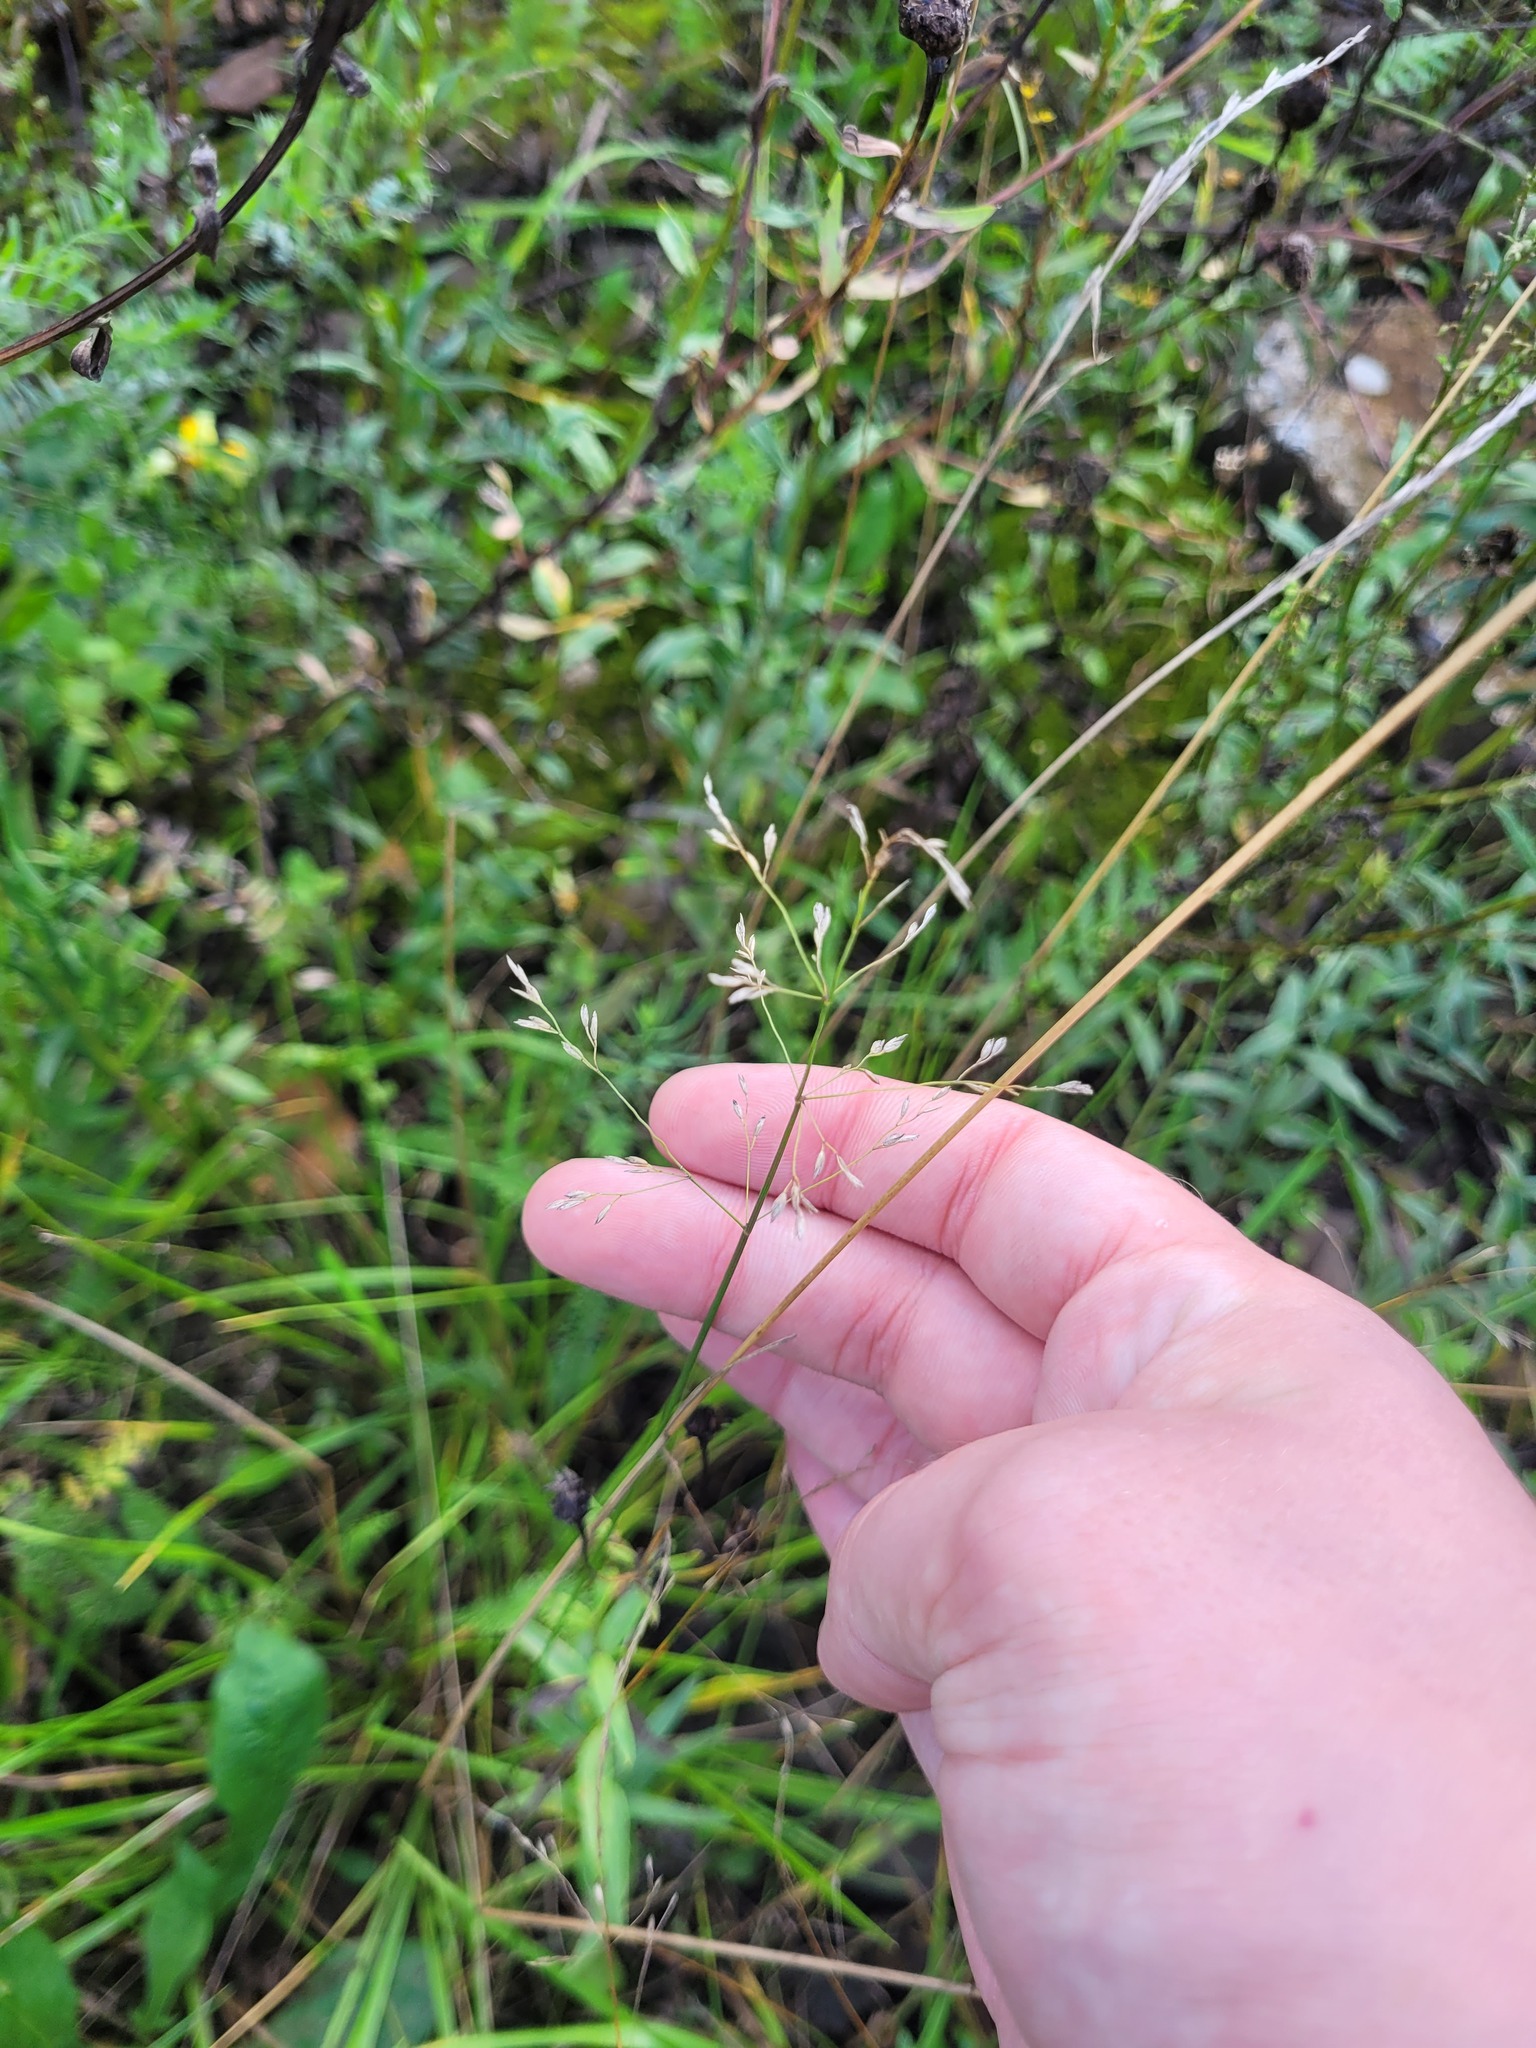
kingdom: Plantae
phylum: Tracheophyta
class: Liliopsida
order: Poales
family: Poaceae
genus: Poa
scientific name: Poa palustris
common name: Swamp meadow-grass
